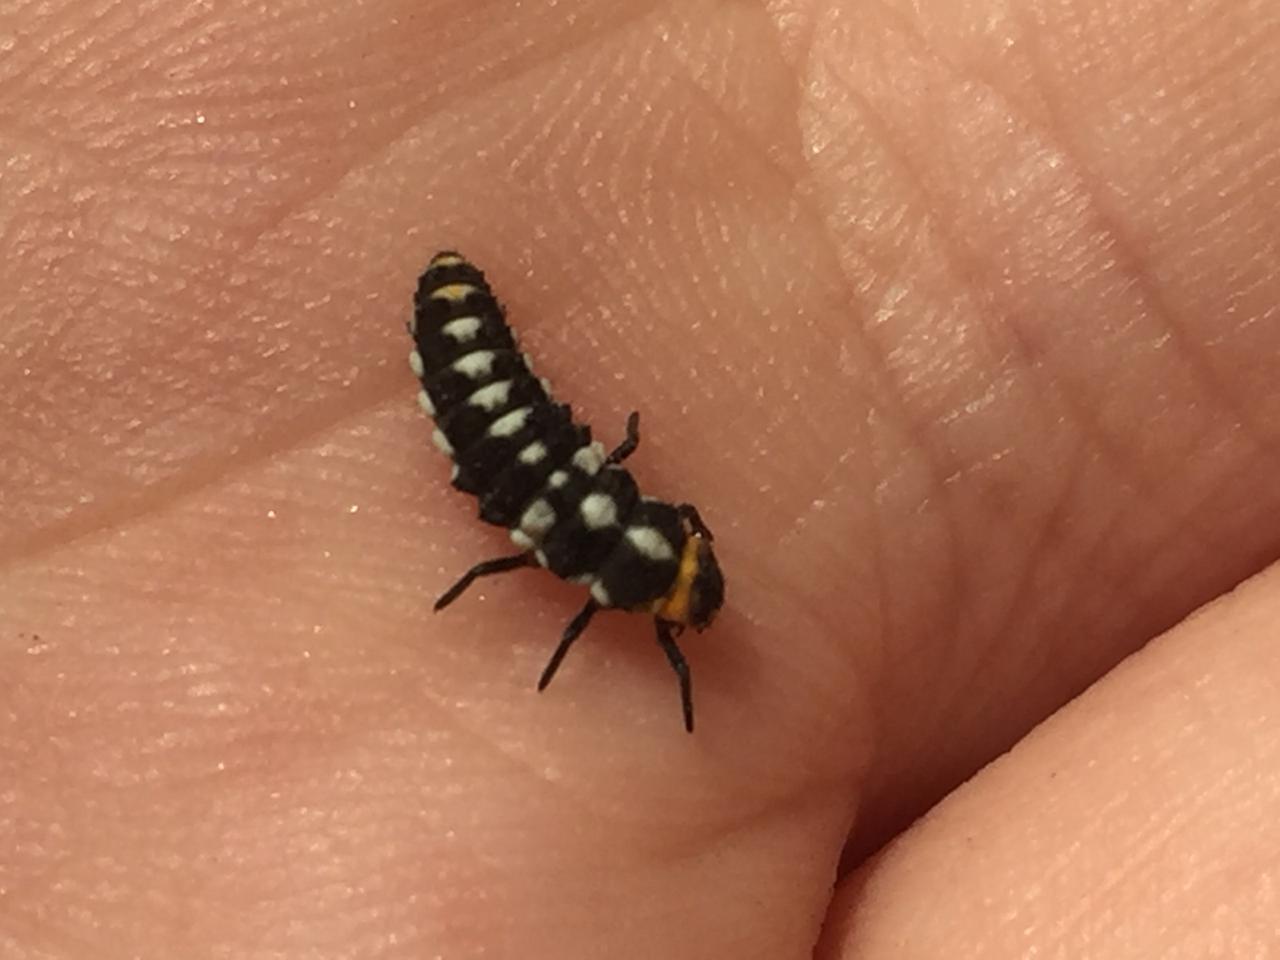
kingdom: Animalia
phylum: Arthropoda
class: Insecta
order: Coleoptera
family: Coccinellidae
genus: Eriopis
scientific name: Eriopis connexa
